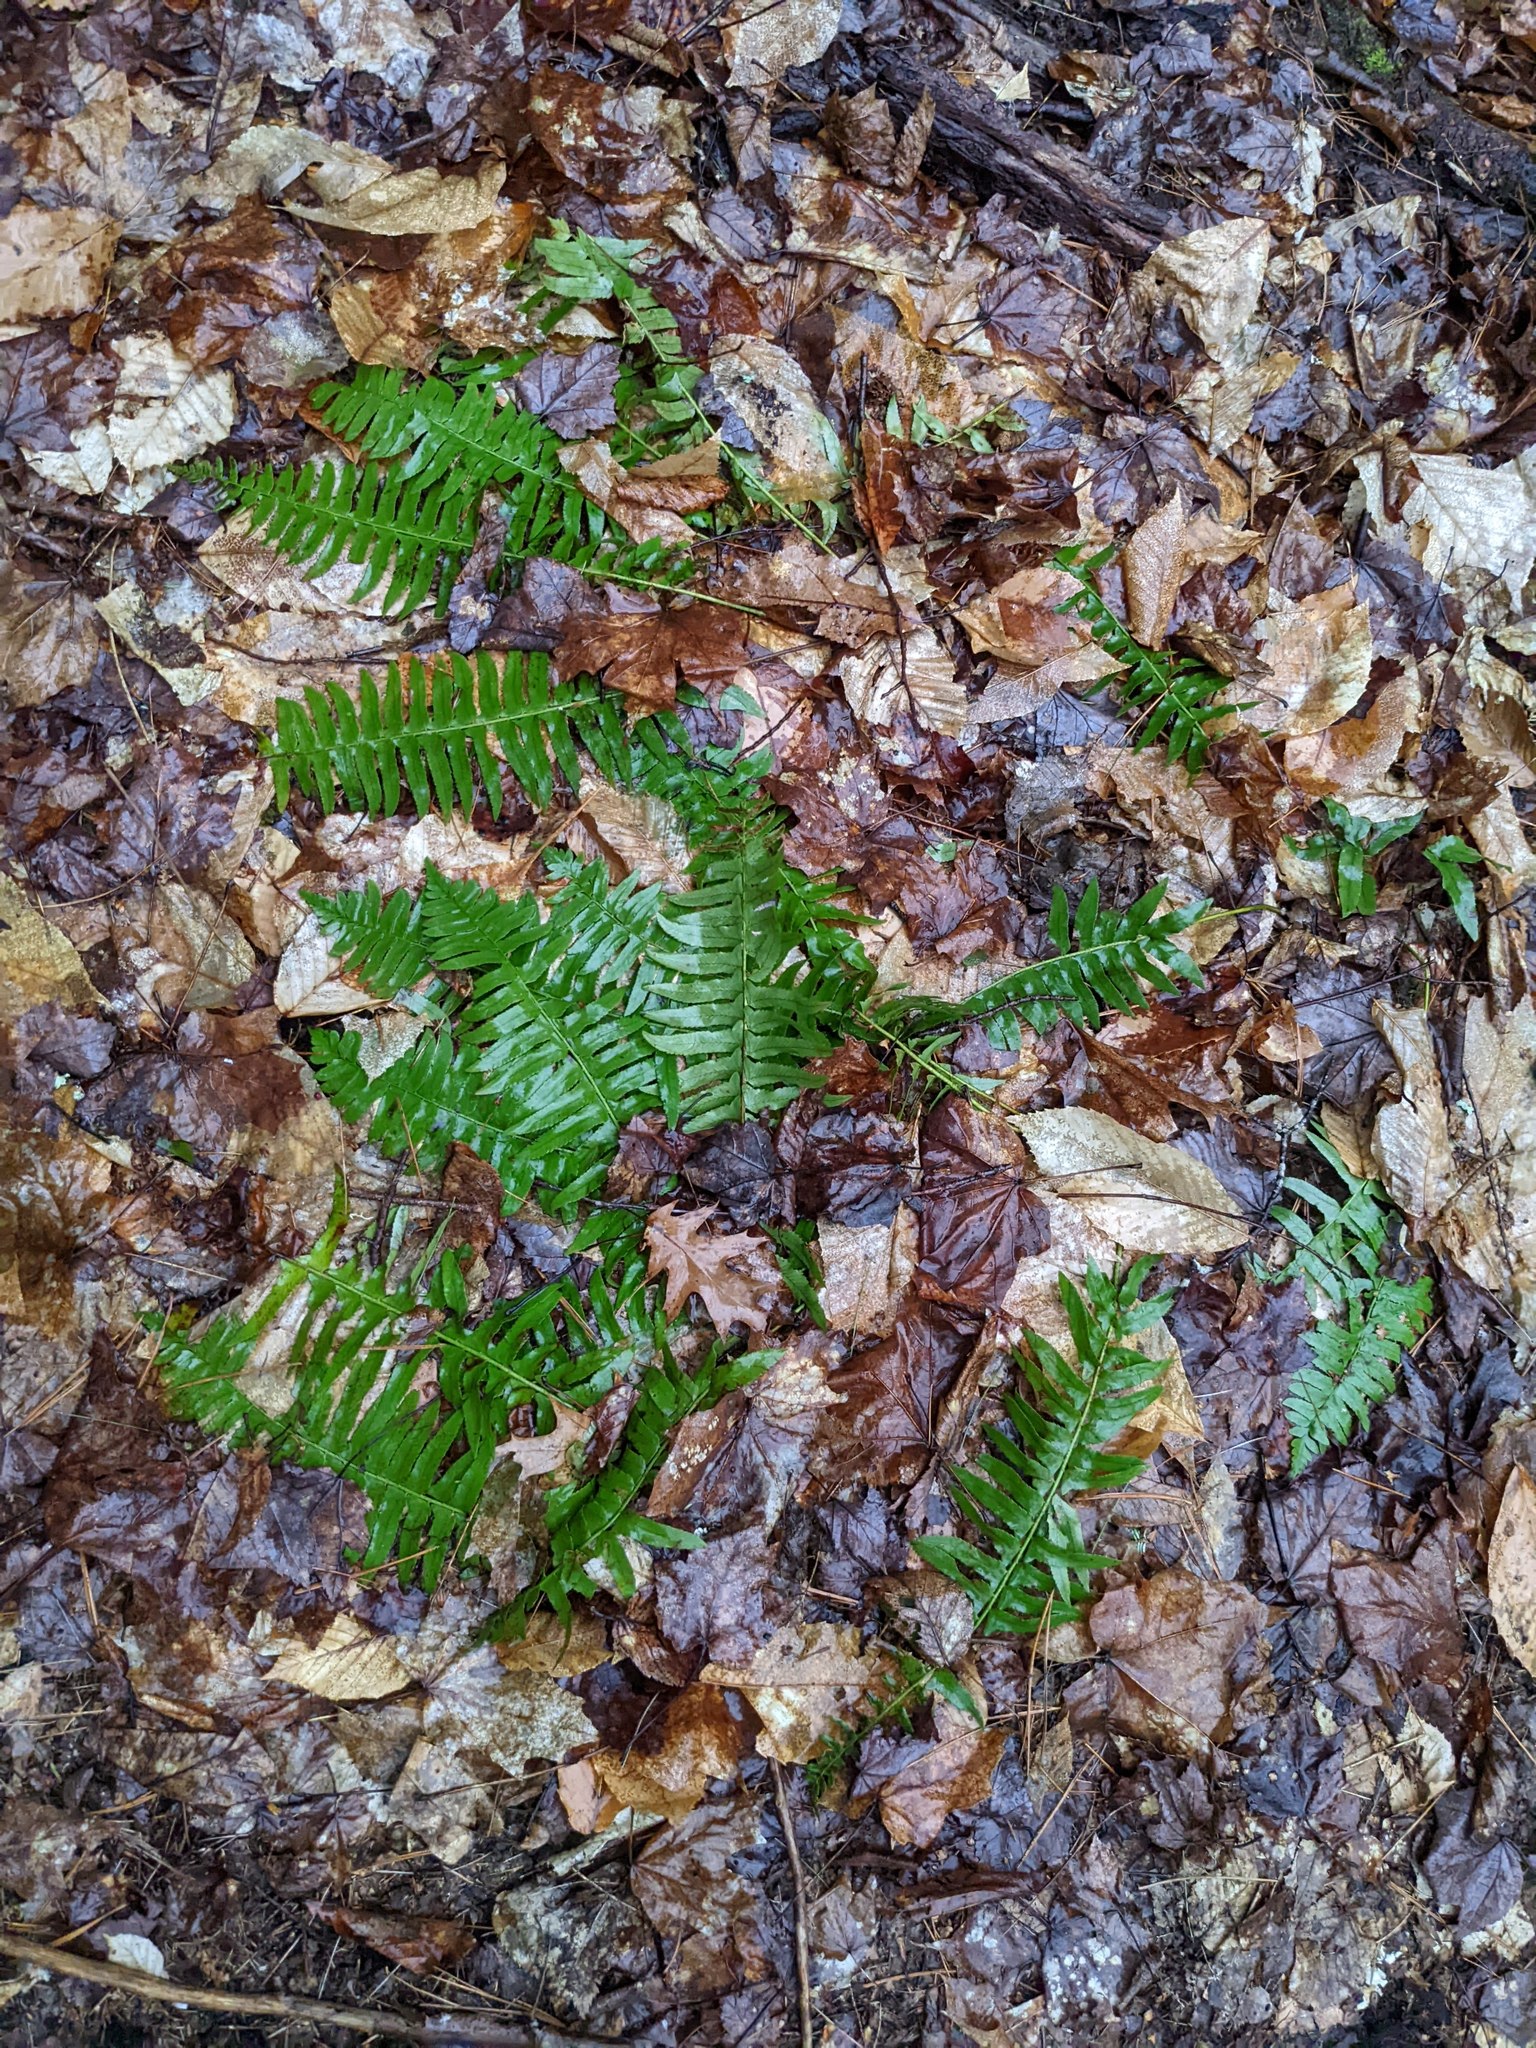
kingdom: Plantae
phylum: Tracheophyta
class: Polypodiopsida
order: Polypodiales
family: Dryopteridaceae
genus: Polystichum
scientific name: Polystichum acrostichoides
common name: Christmas fern
